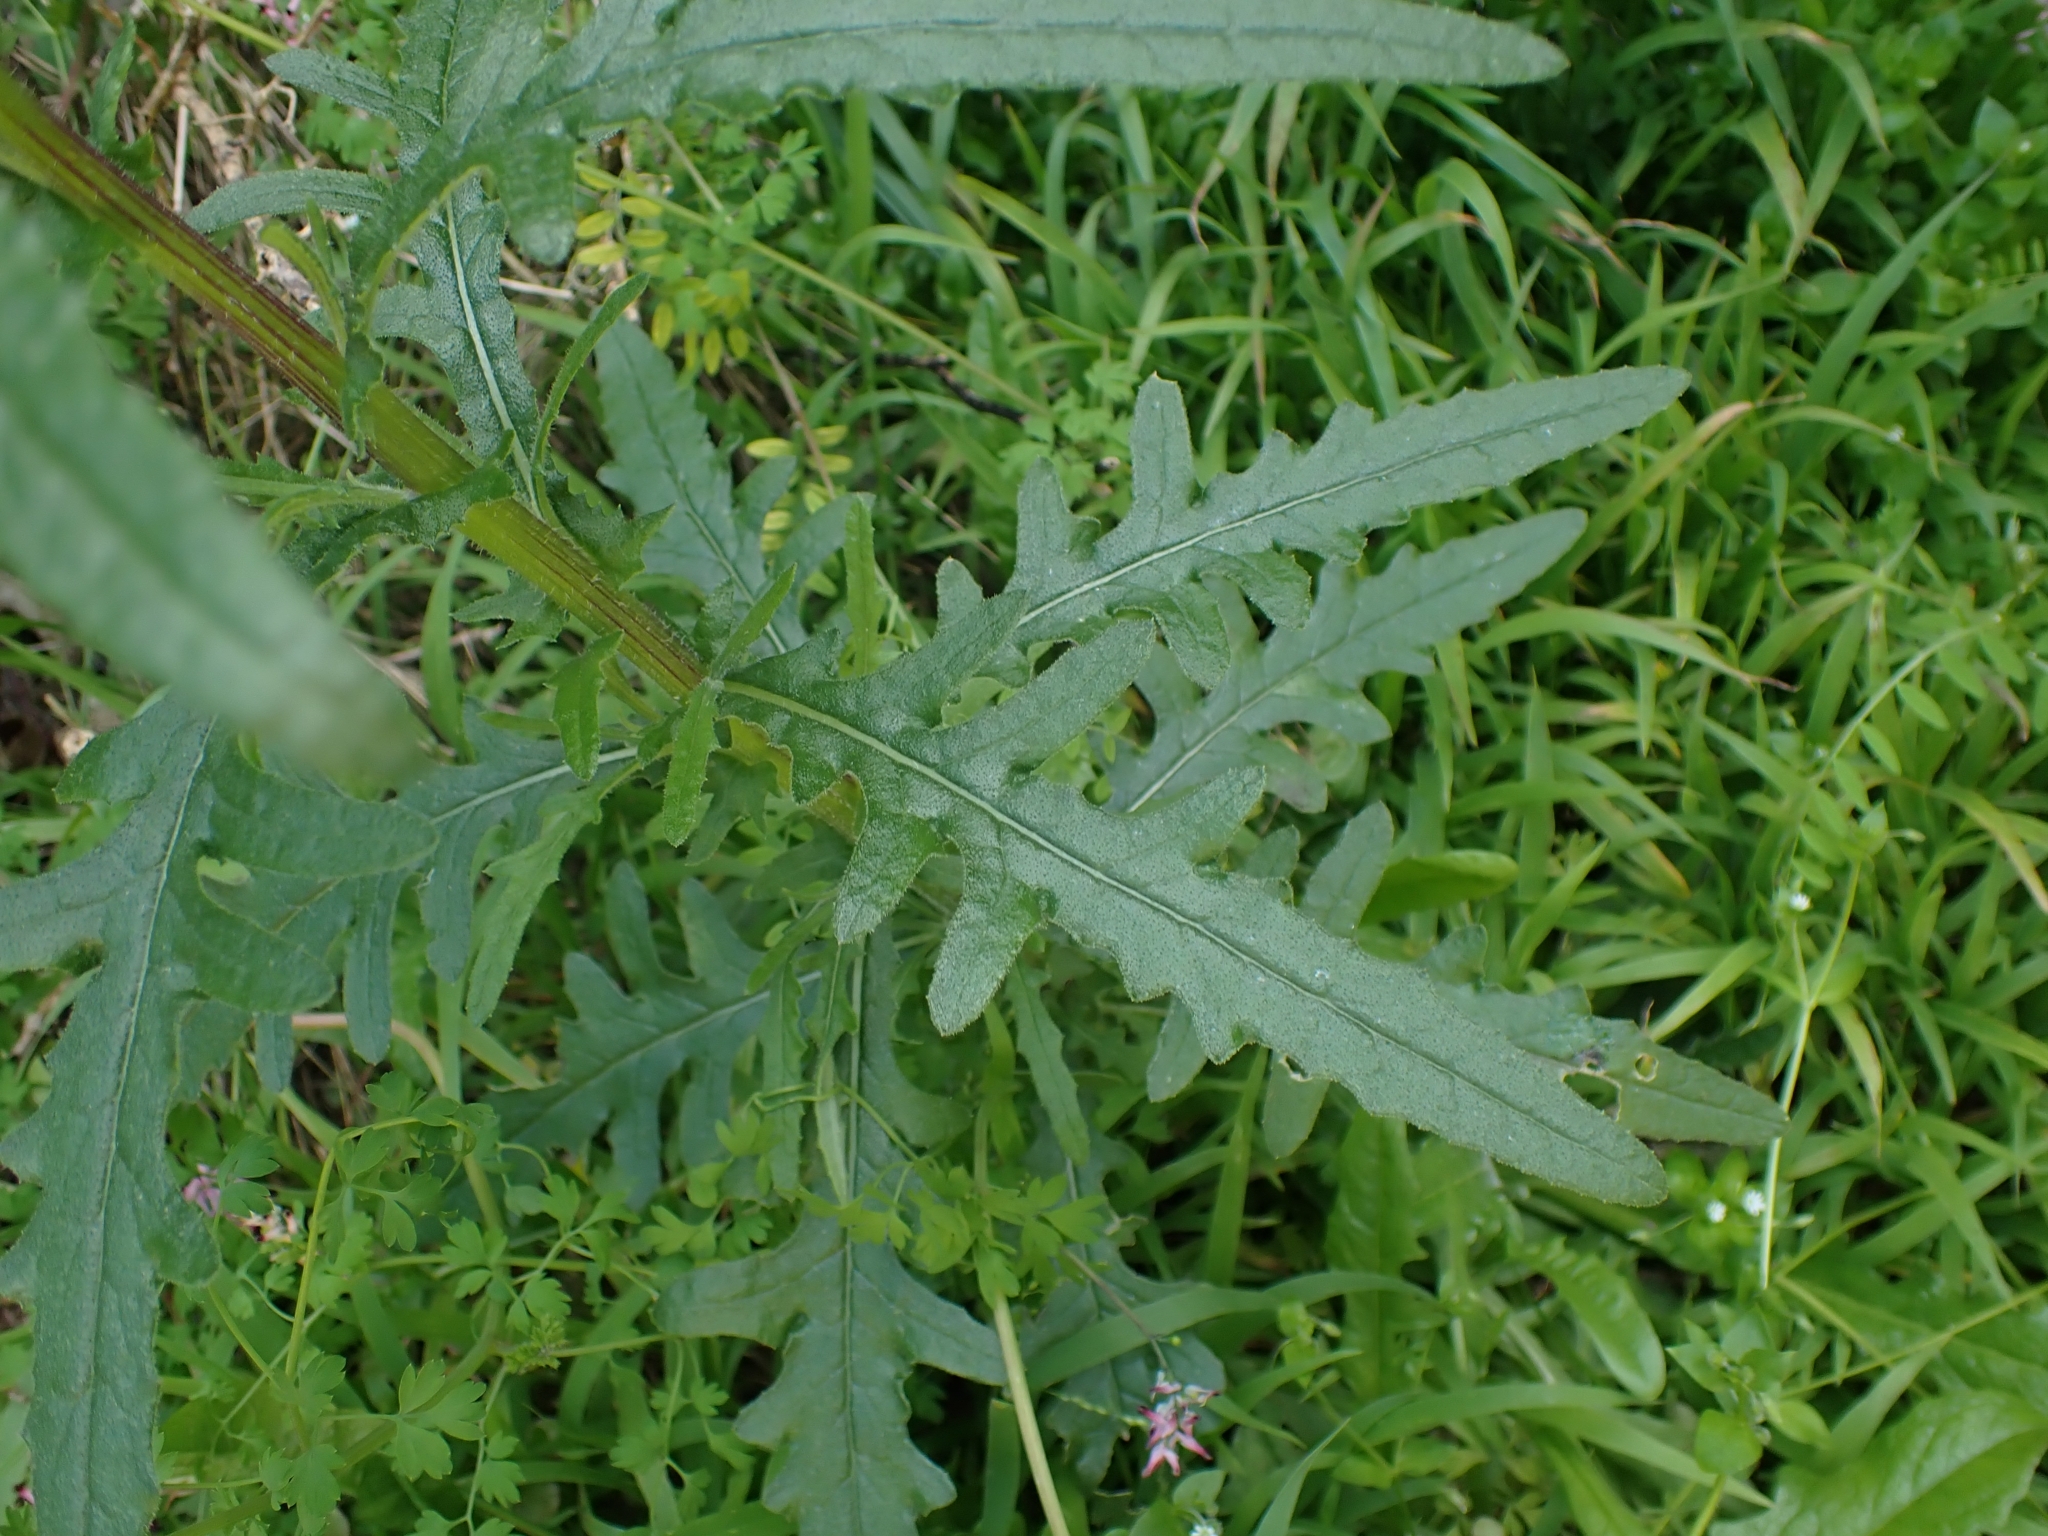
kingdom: Plantae
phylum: Tracheophyta
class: Magnoliopsida
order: Asterales
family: Asteraceae
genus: Senecio
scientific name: Senecio hispidulus
